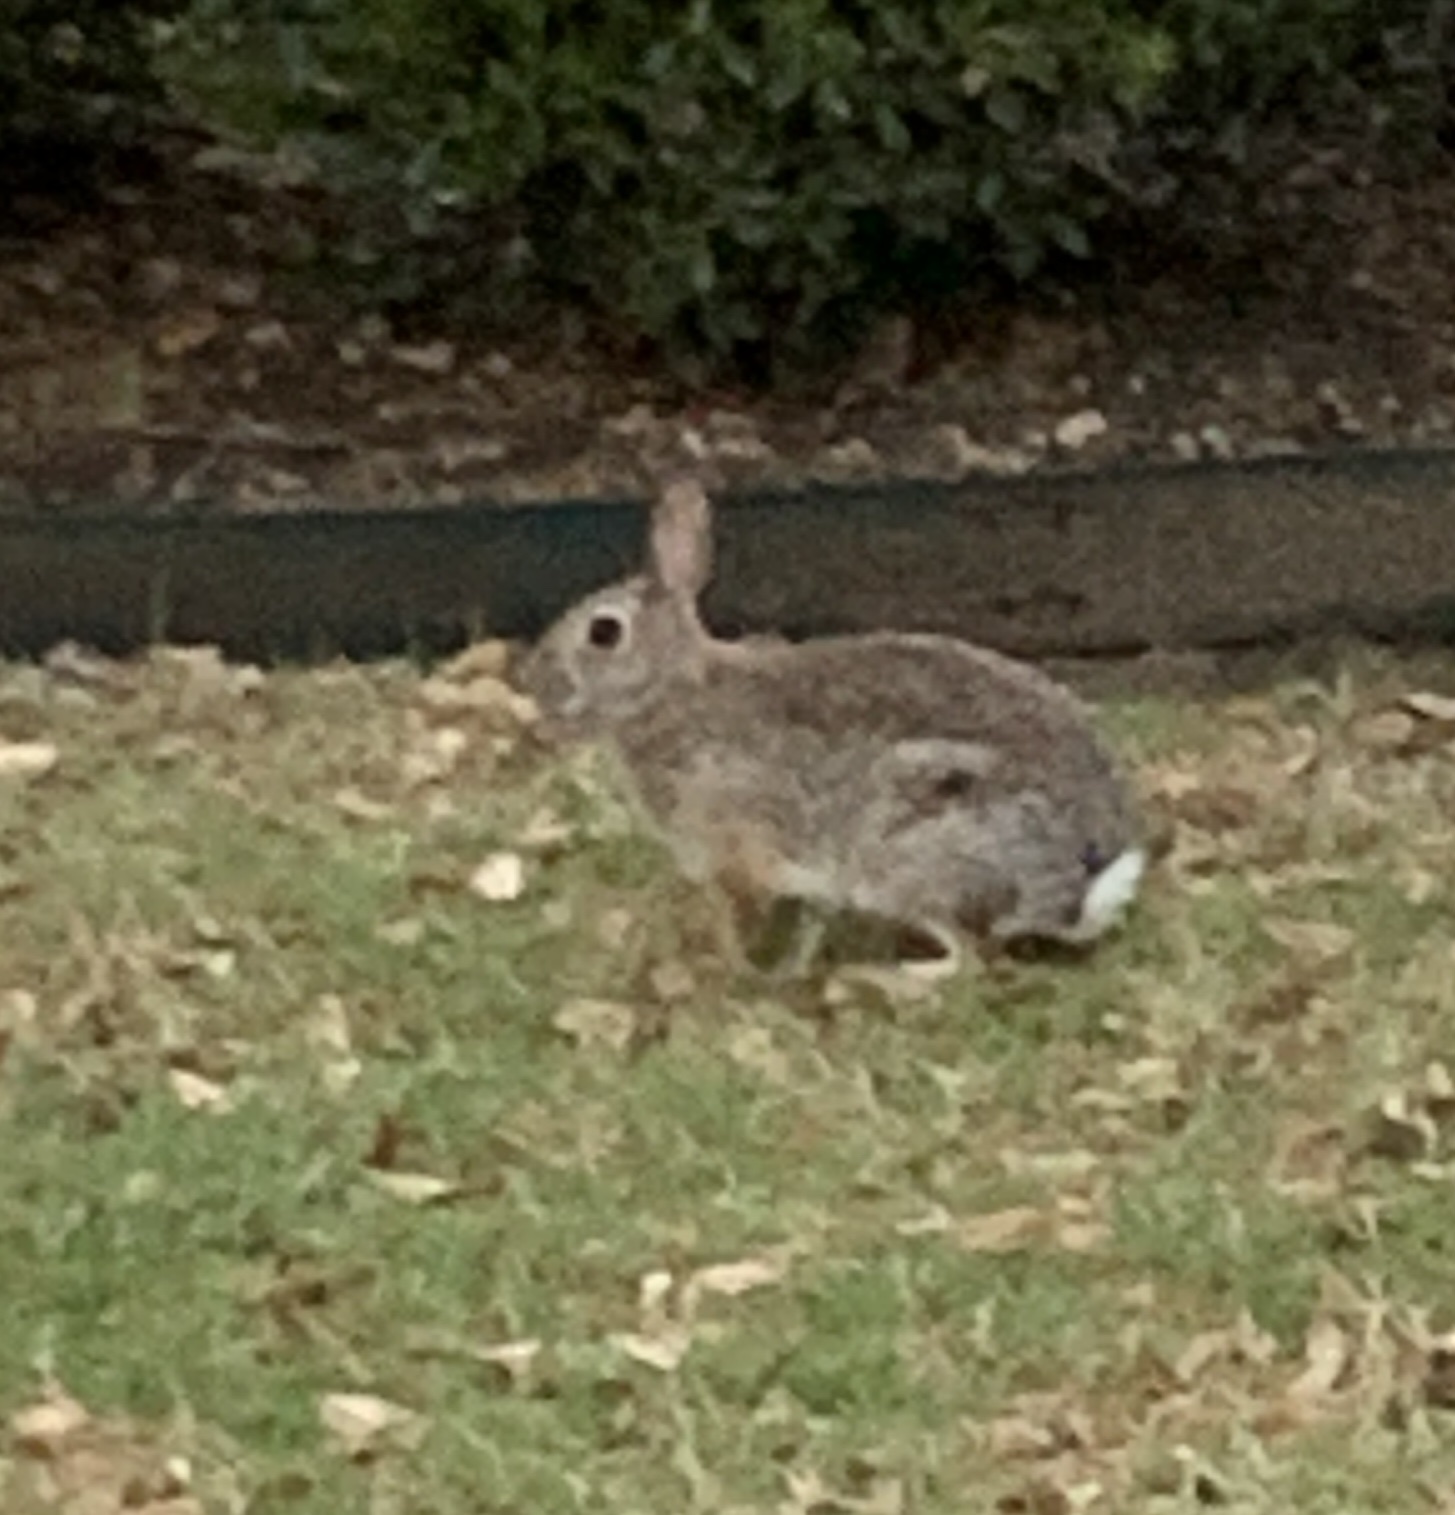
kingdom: Animalia
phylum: Chordata
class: Mammalia
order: Lagomorpha
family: Leporidae
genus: Sylvilagus
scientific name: Sylvilagus floridanus
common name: Eastern cottontail
